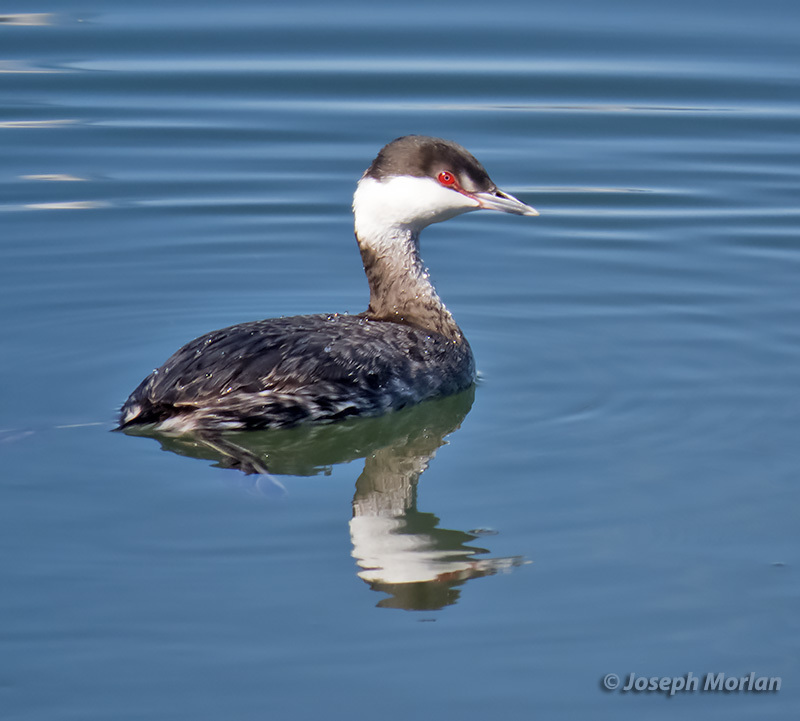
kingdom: Animalia
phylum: Chordata
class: Aves
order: Podicipediformes
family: Podicipedidae
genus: Podiceps
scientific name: Podiceps auritus
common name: Horned grebe
